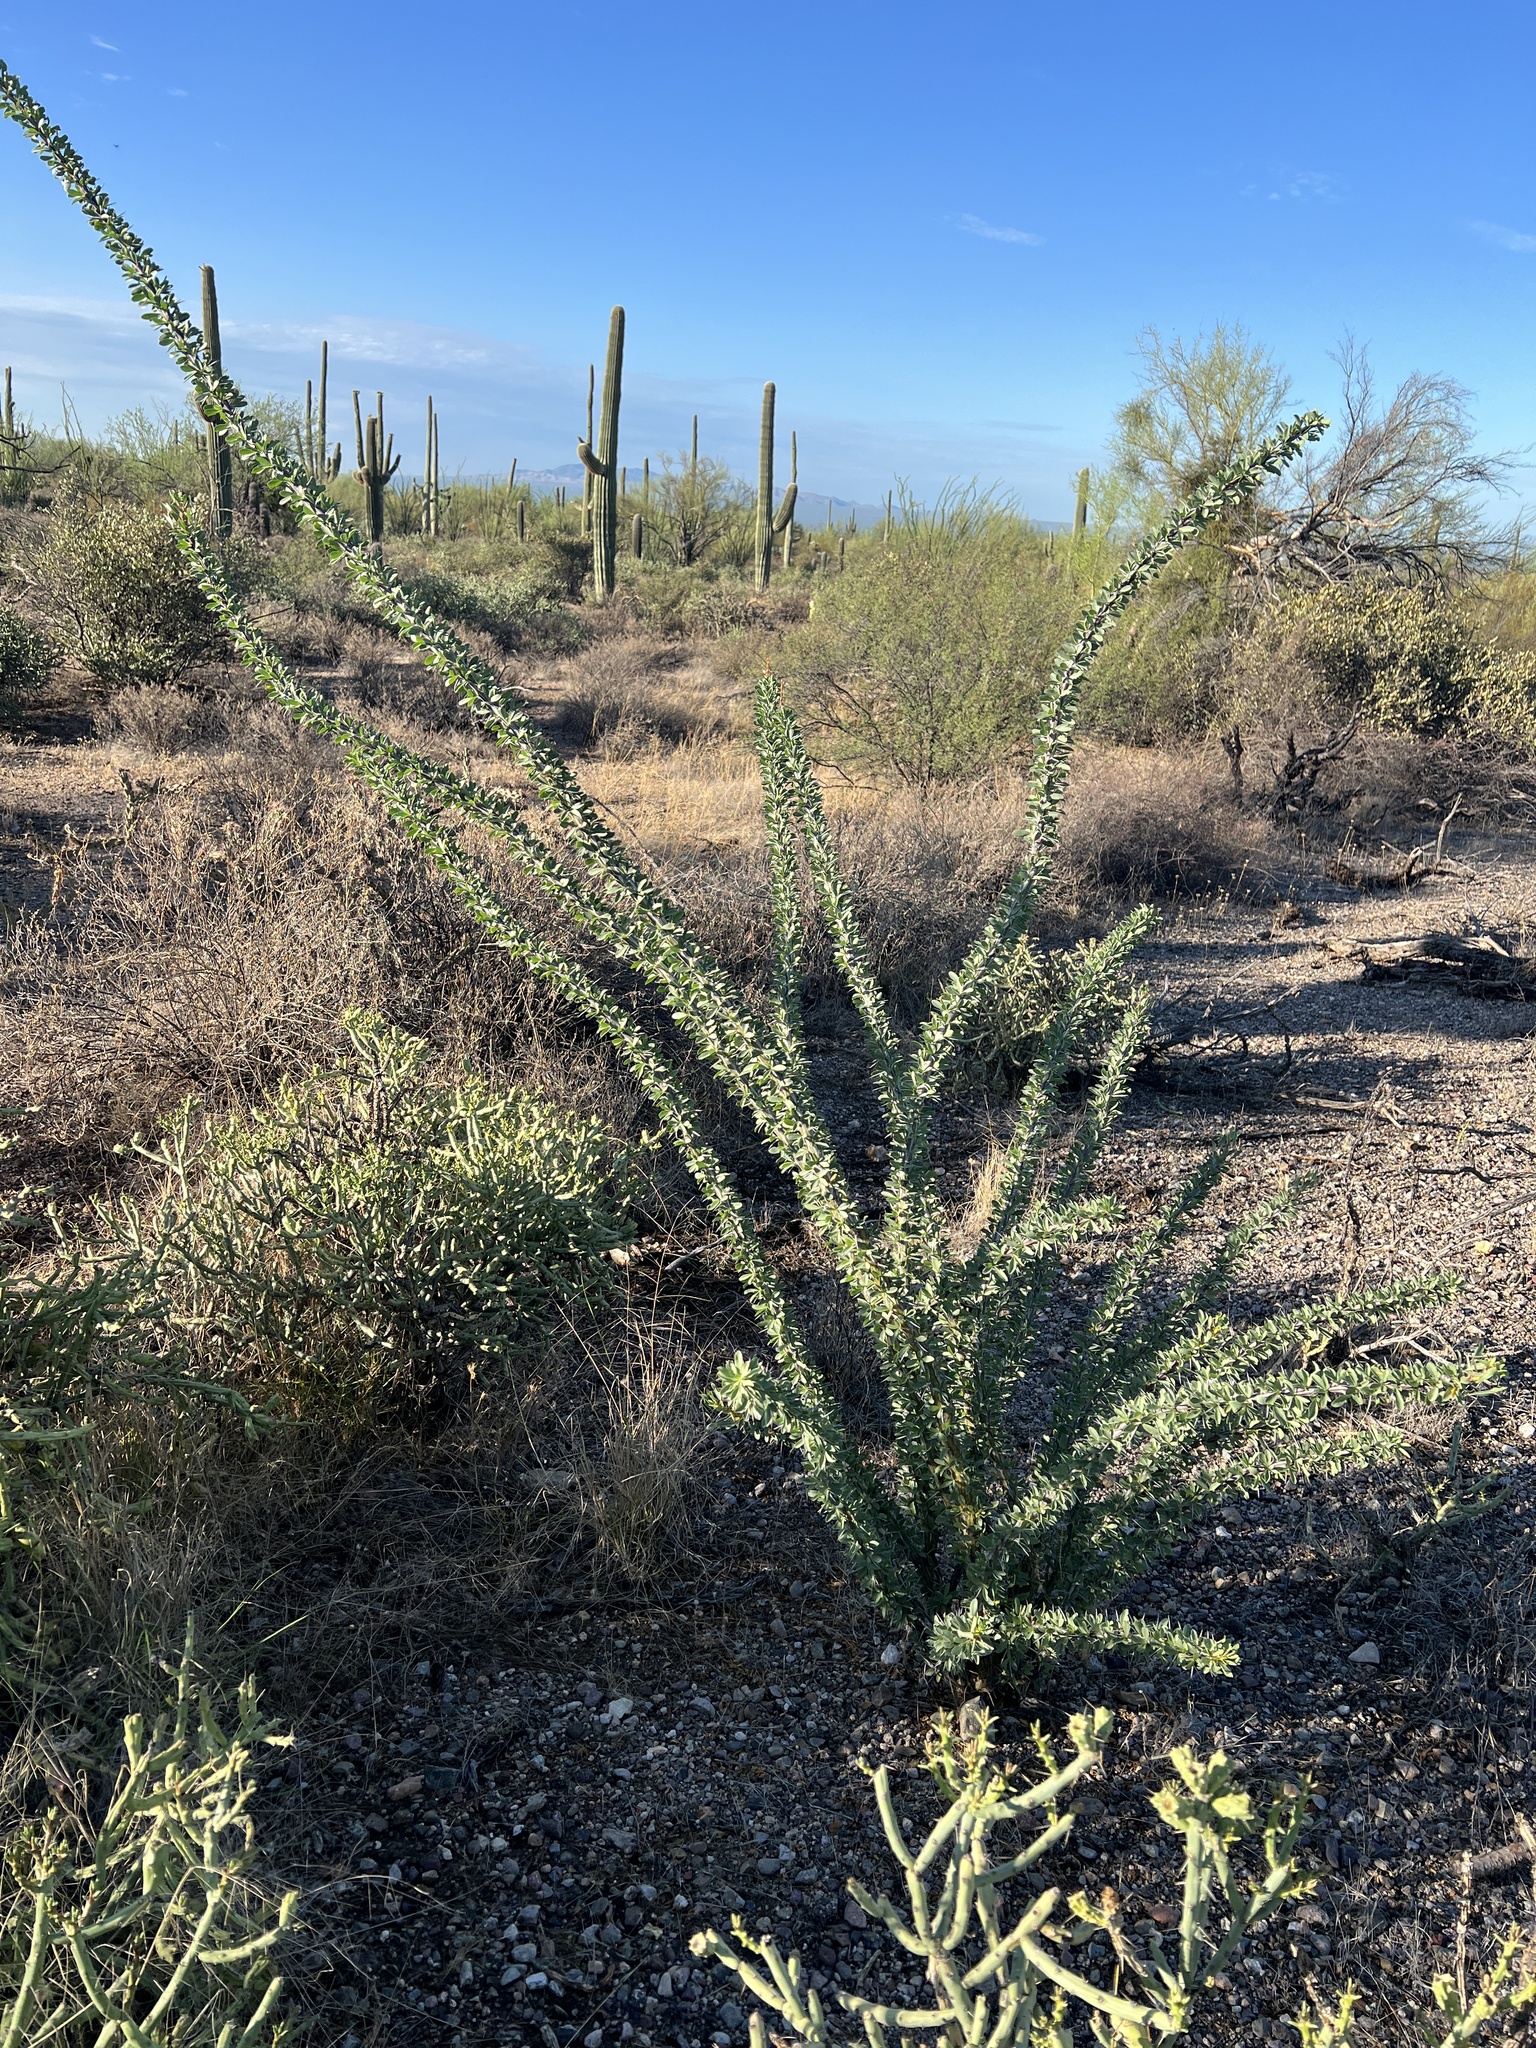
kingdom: Plantae
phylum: Tracheophyta
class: Magnoliopsida
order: Ericales
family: Fouquieriaceae
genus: Fouquieria
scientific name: Fouquieria splendens
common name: Vine-cactus
